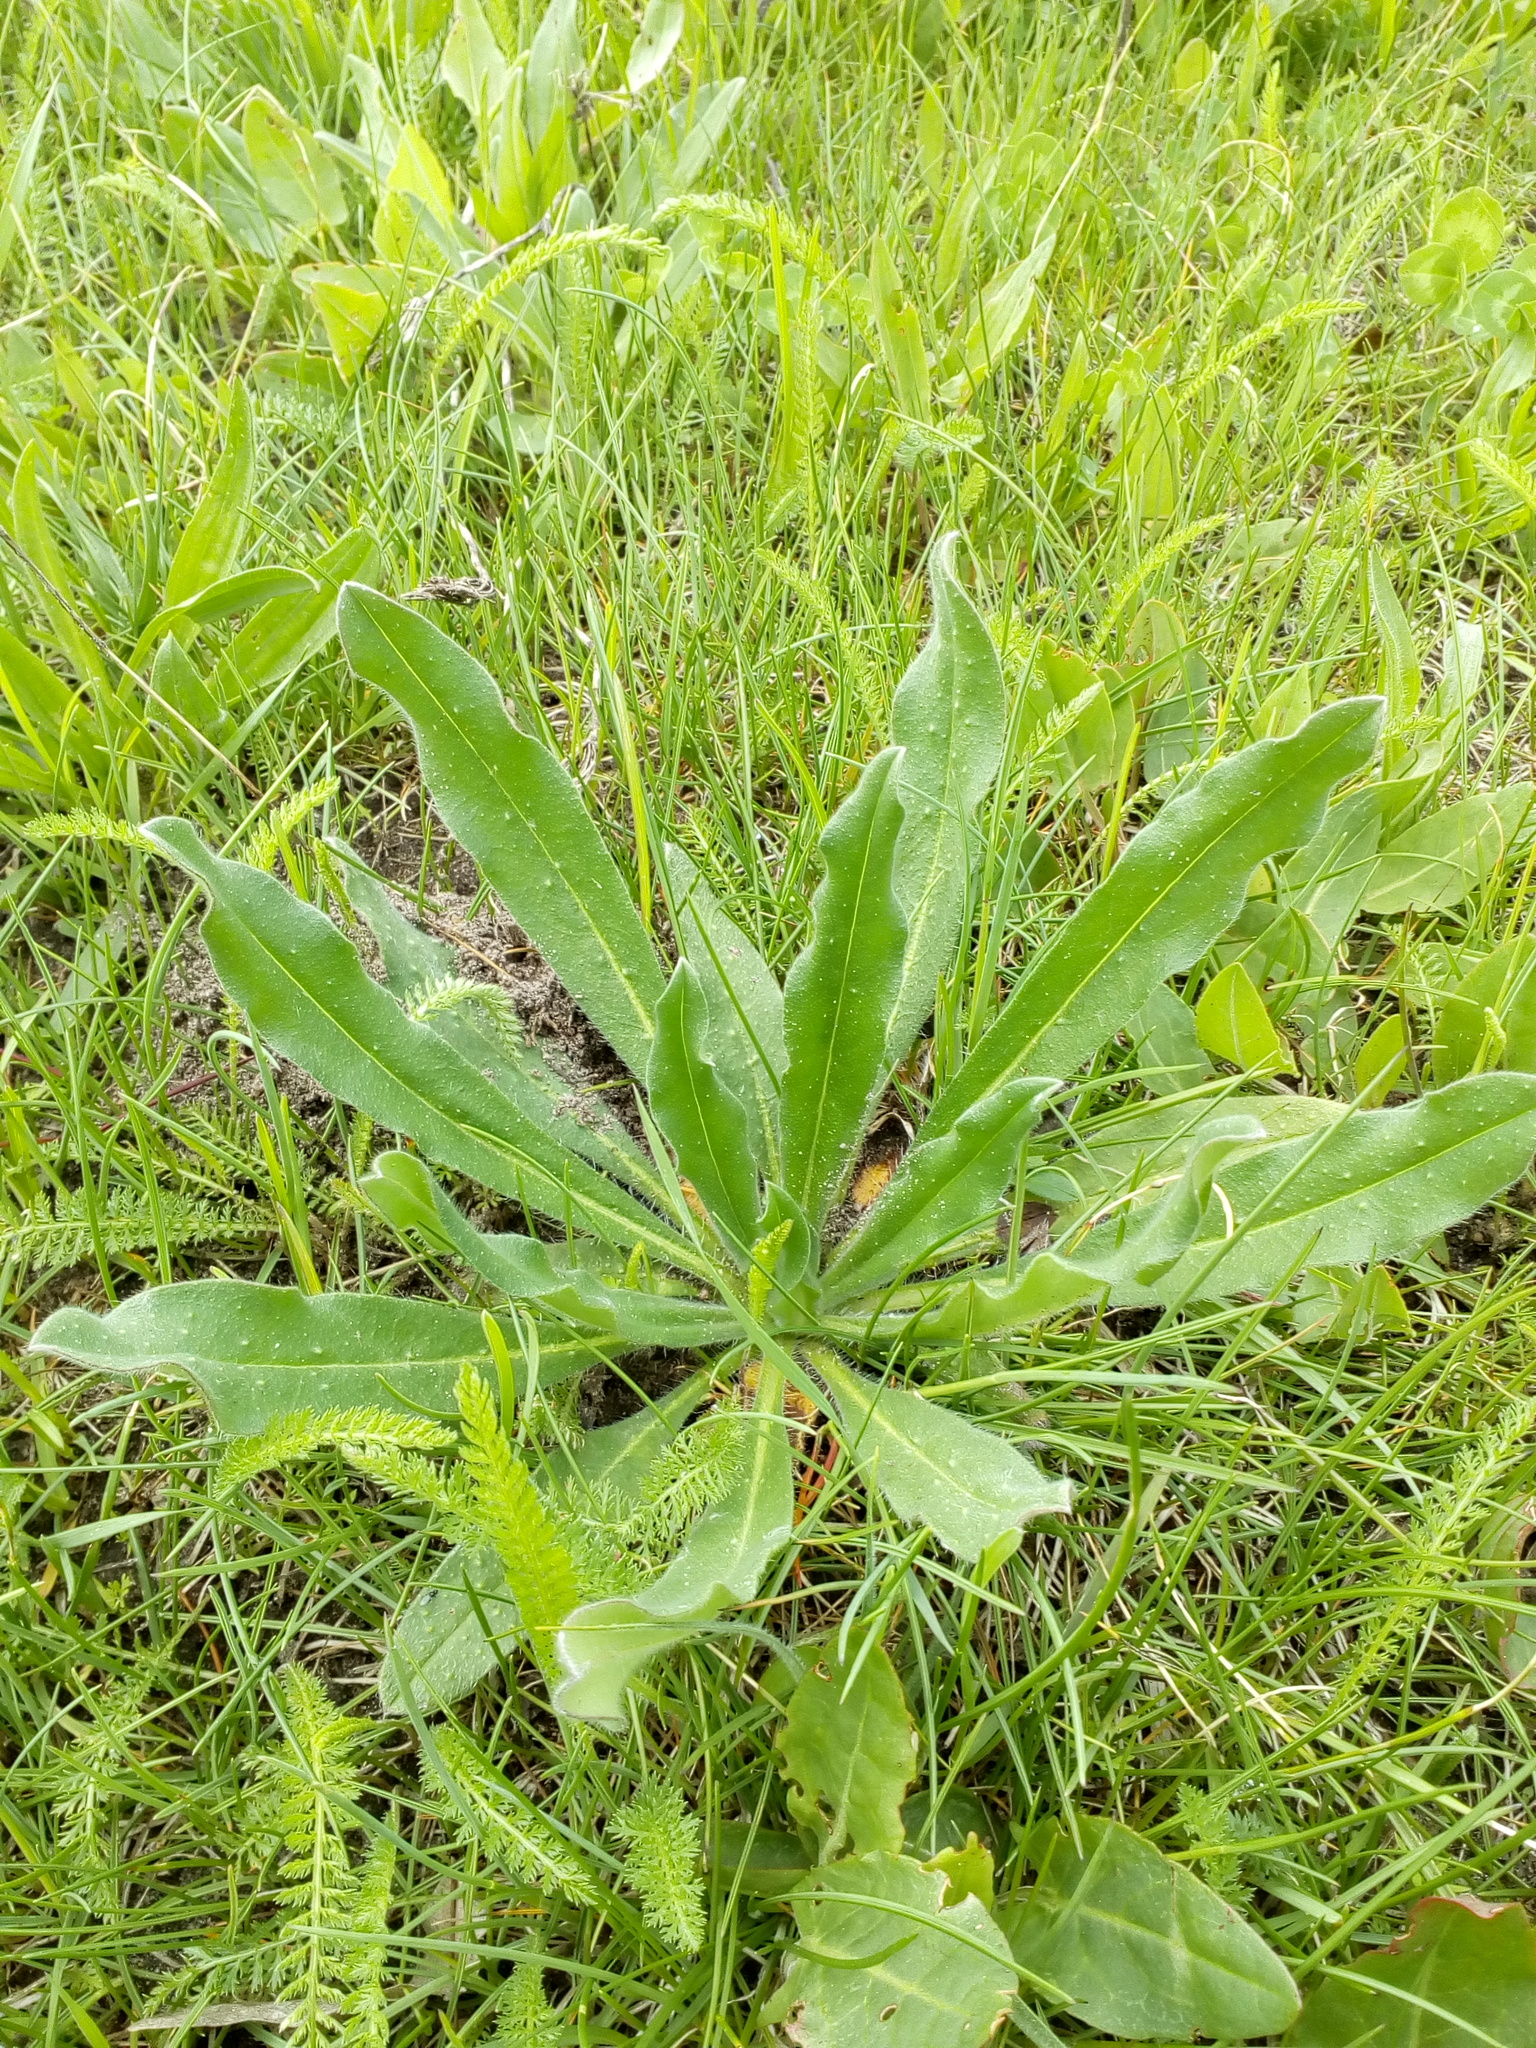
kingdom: Plantae
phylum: Tracheophyta
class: Magnoliopsida
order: Boraginales
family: Boraginaceae
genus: Echium
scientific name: Echium vulgare
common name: Common viper's bugloss
